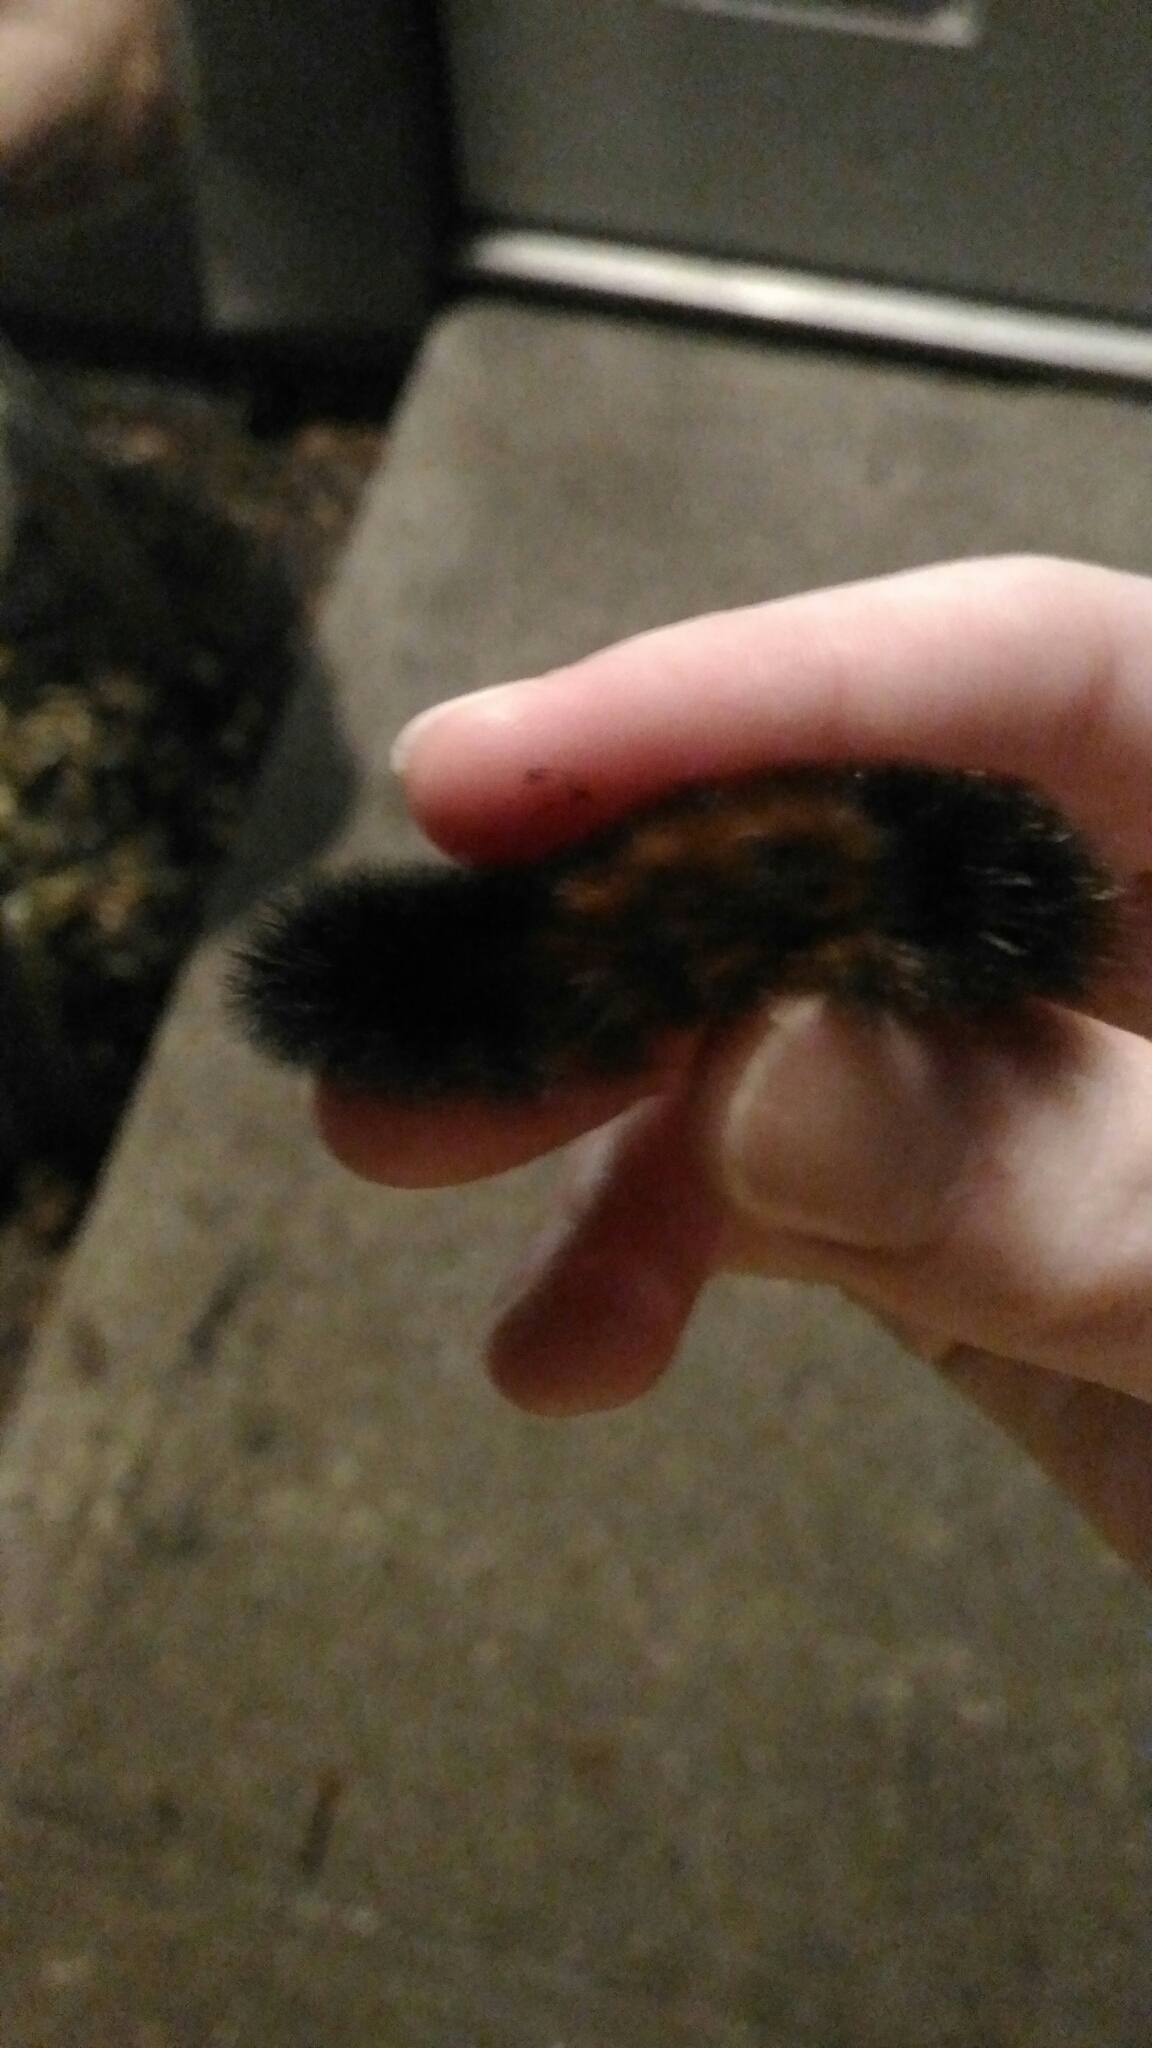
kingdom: Animalia
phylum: Arthropoda
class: Insecta
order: Lepidoptera
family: Erebidae
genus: Pyrrharctia
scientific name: Pyrrharctia isabella
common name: Isabella tiger moth
